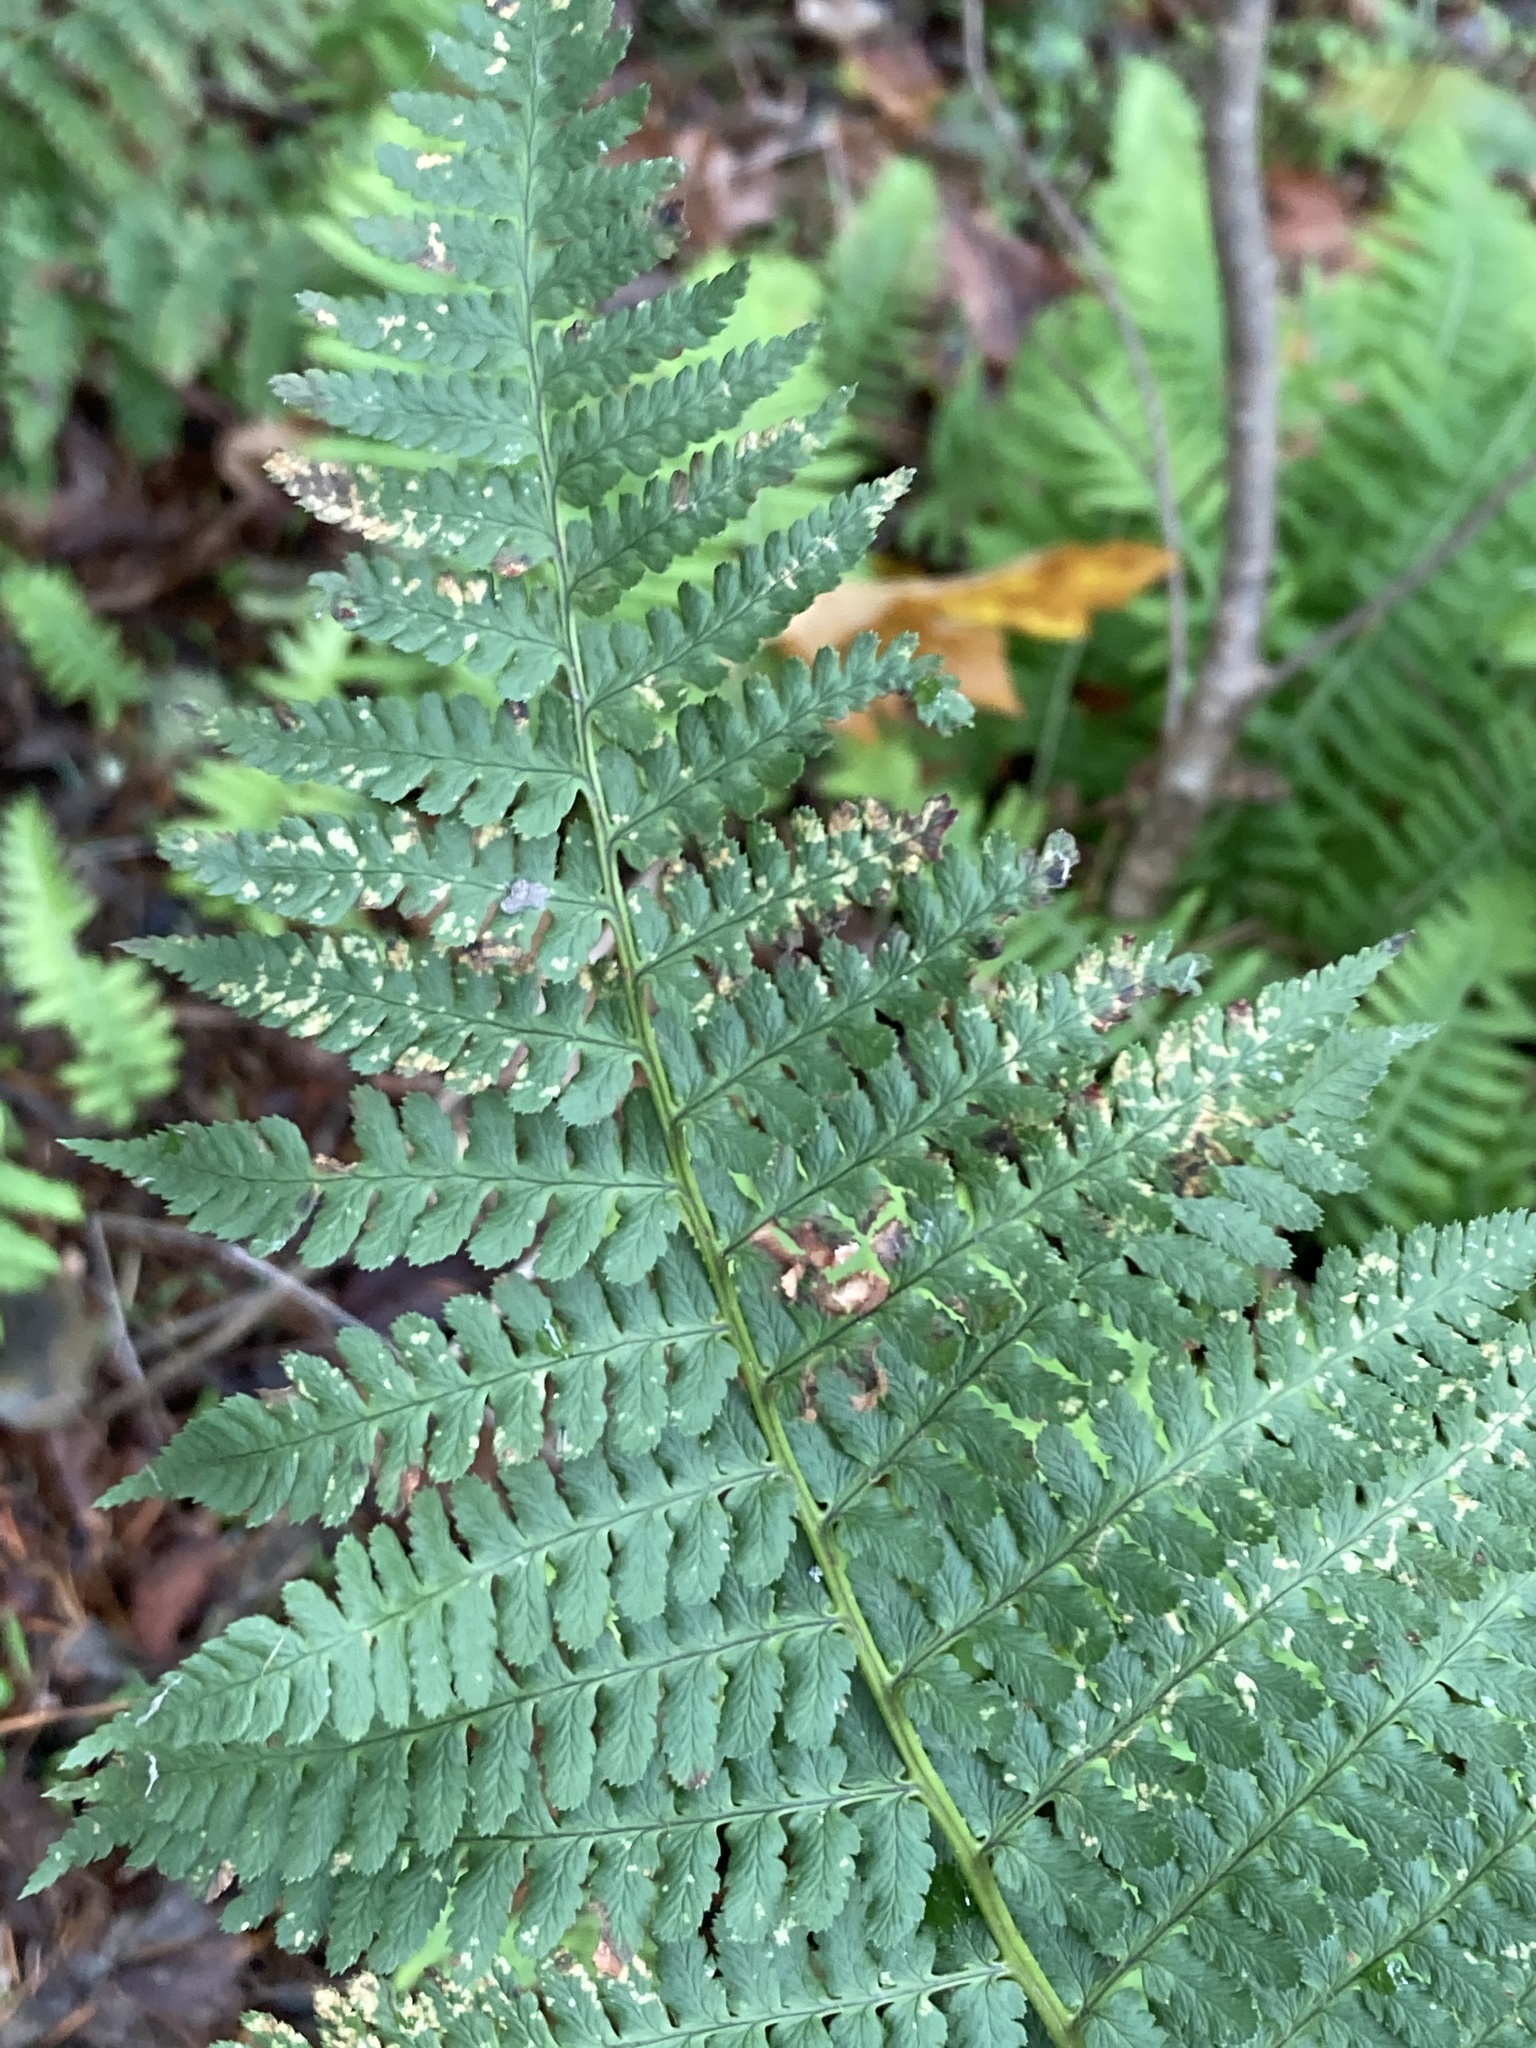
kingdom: Plantae
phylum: Tracheophyta
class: Polypodiopsida
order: Polypodiales
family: Dryopteridaceae
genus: Dryopteris
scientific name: Dryopteris arguta
